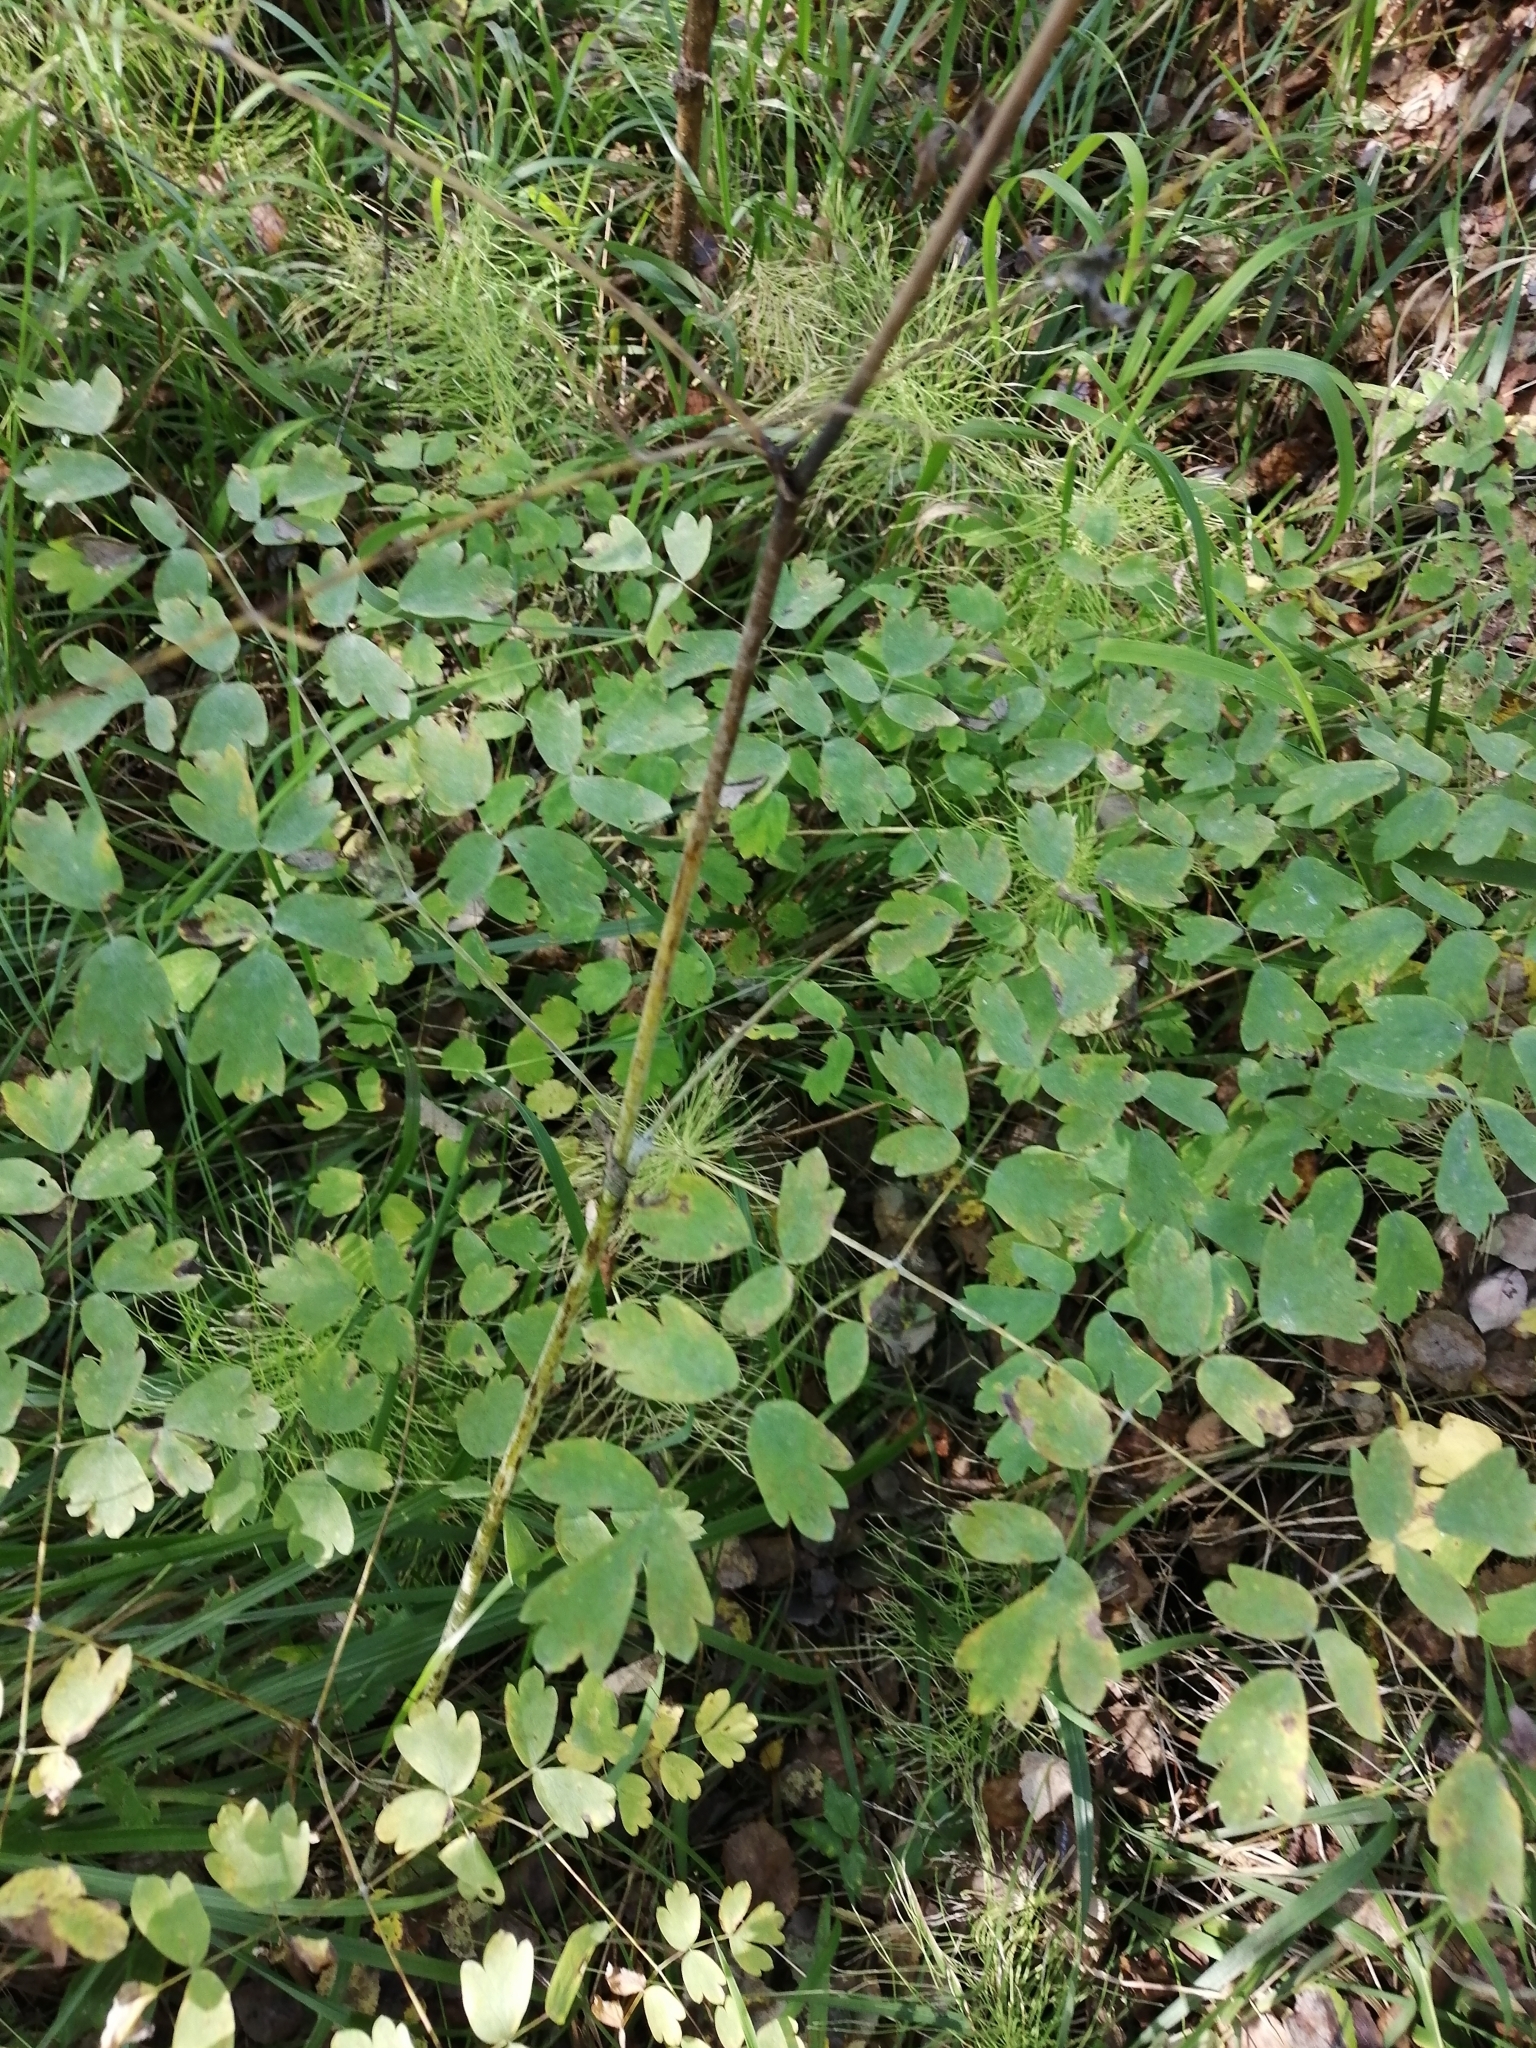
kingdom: Plantae
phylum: Tracheophyta
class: Magnoliopsida
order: Ranunculales
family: Ranunculaceae
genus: Thalictrum
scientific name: Thalictrum minus
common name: Lesser meadow-rue
